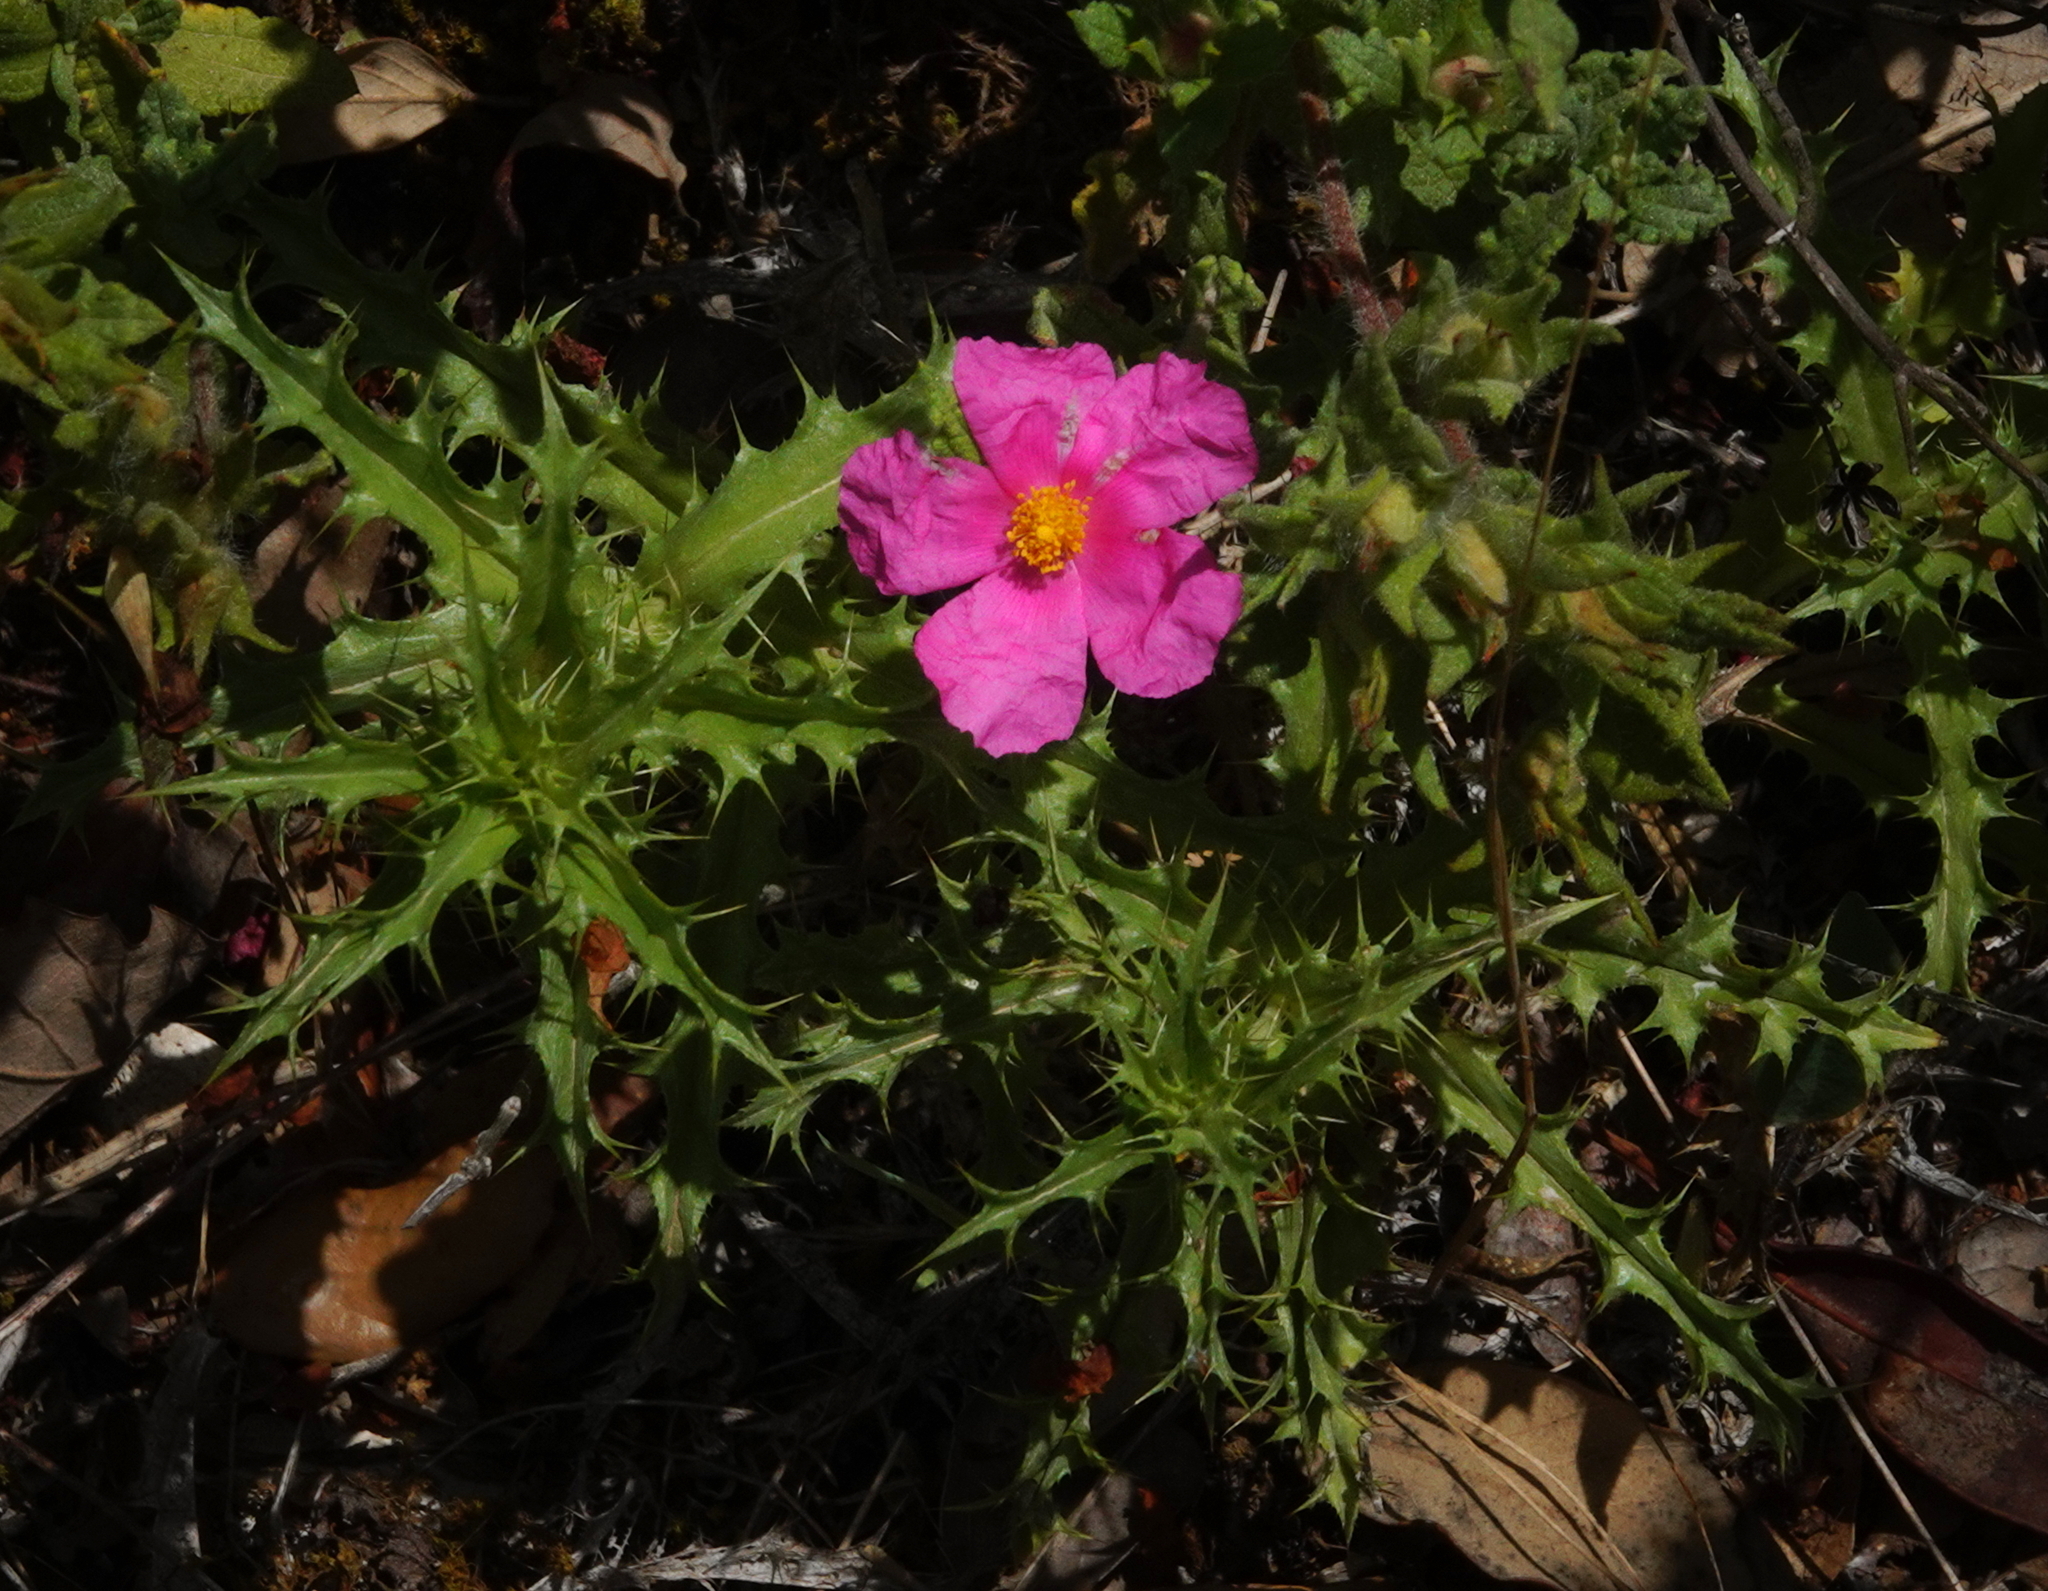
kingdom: Plantae
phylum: Tracheophyta
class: Magnoliopsida
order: Malvales
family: Cistaceae
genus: Cistus
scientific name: Cistus crispus
